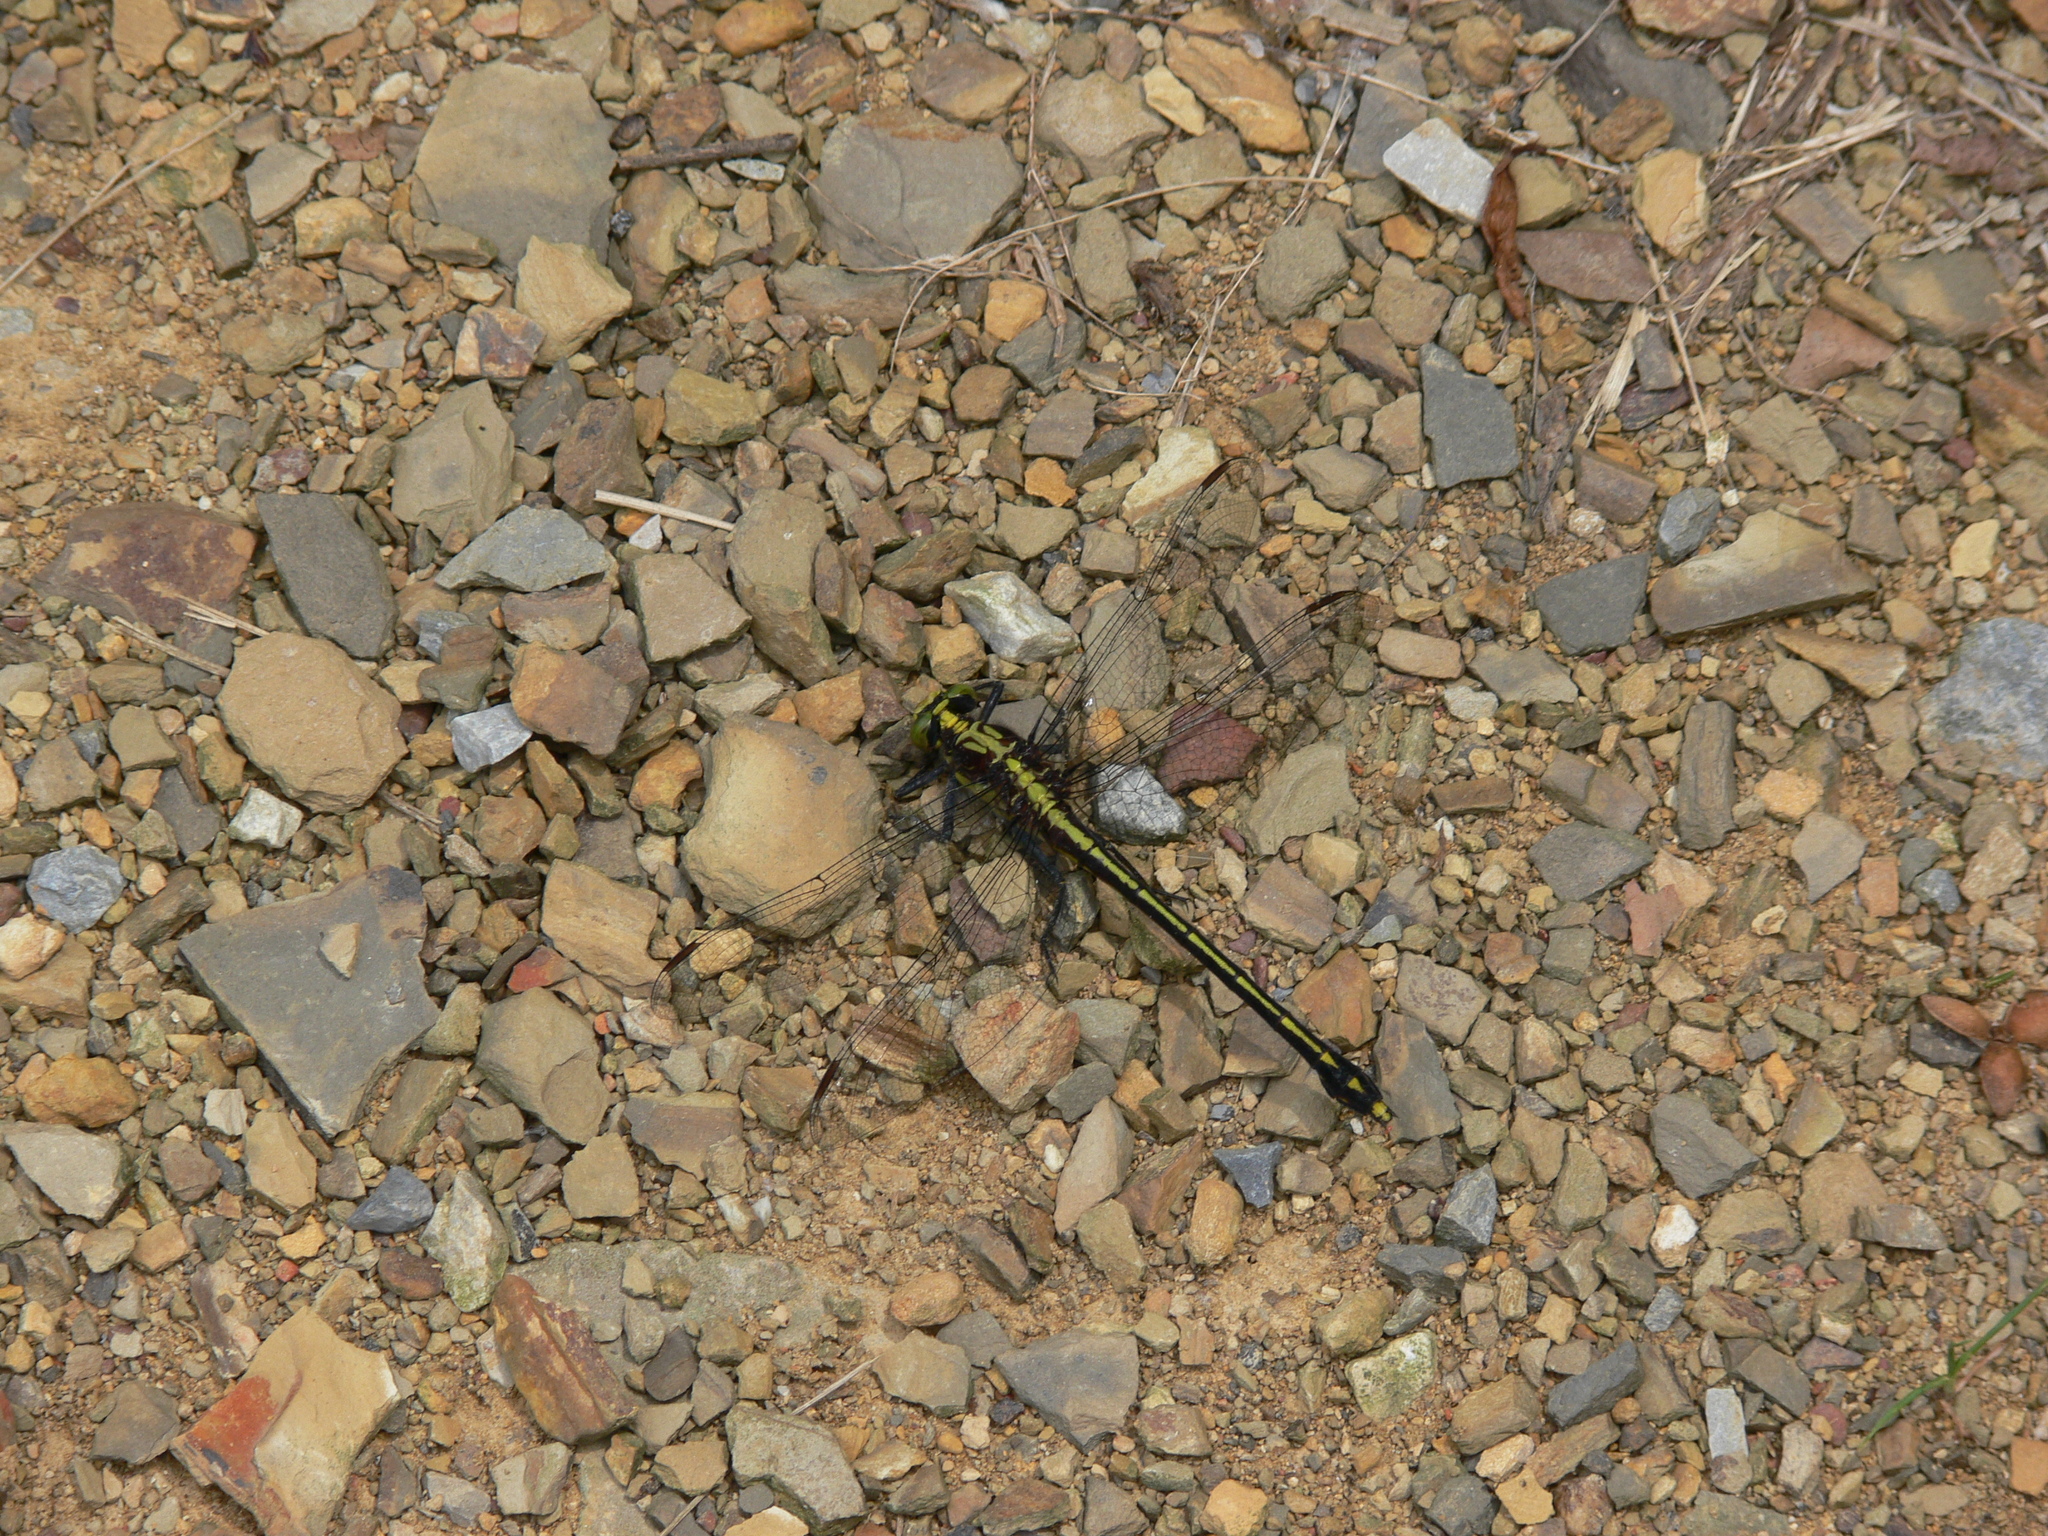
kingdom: Animalia
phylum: Arthropoda
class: Insecta
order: Odonata
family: Gomphidae
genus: Dromogomphus
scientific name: Dromogomphus spinosus
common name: Black-shouldered spinyleg
